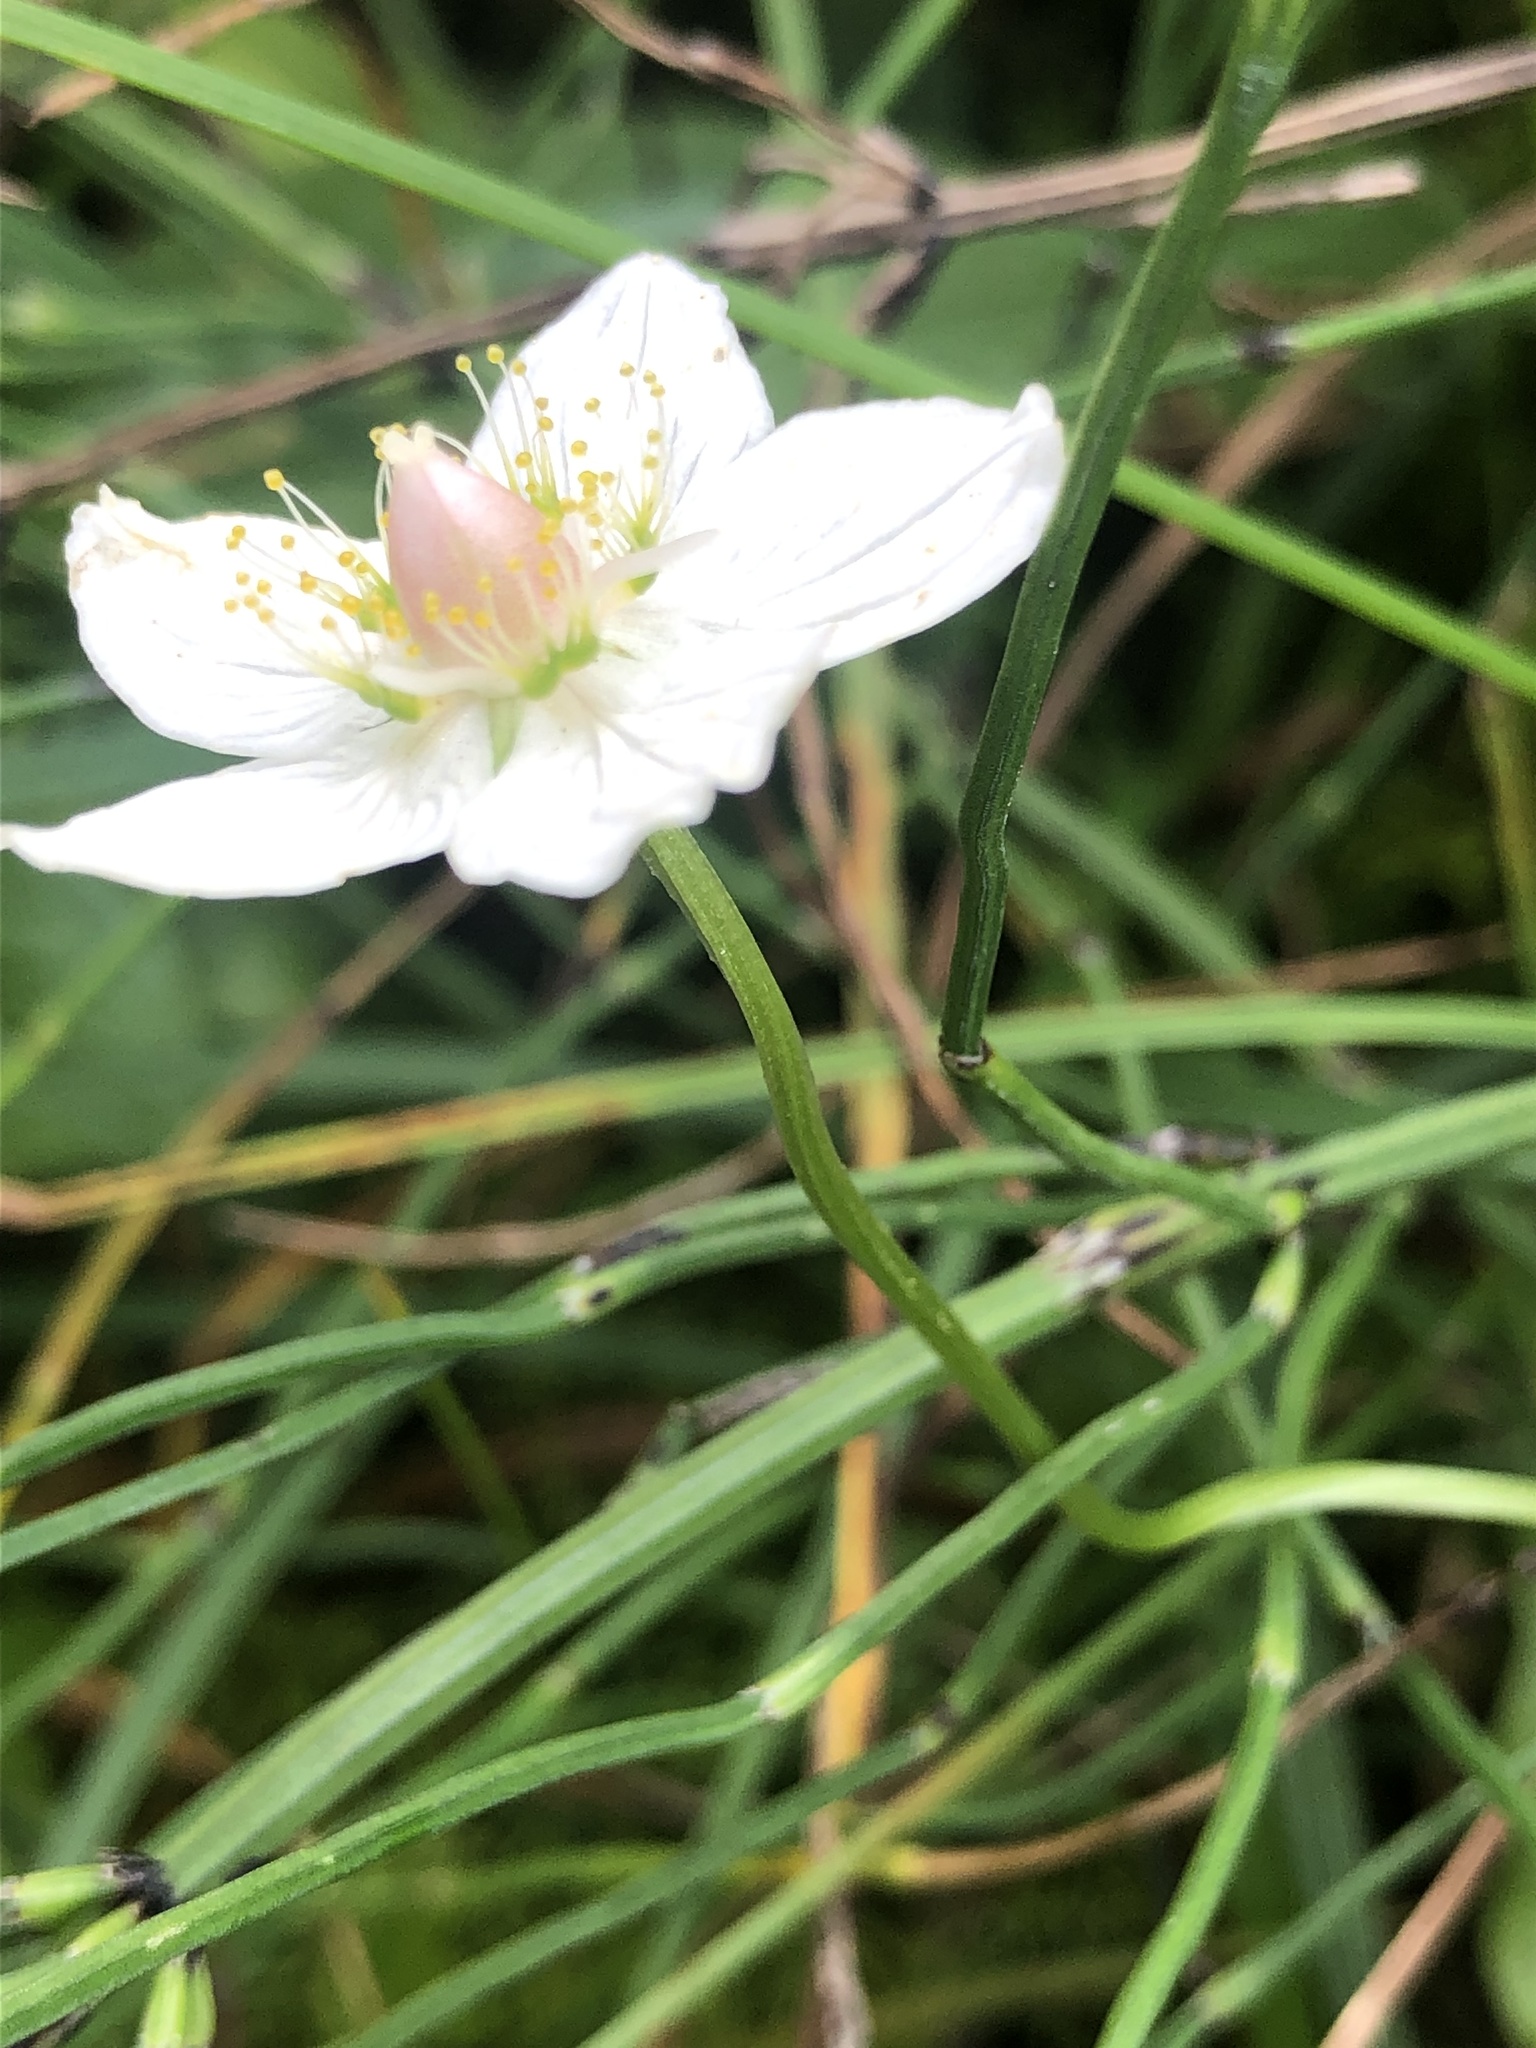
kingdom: Plantae
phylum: Tracheophyta
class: Magnoliopsida
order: Celastrales
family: Parnassiaceae
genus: Parnassia
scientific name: Parnassia palustris
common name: Grass-of-parnassus
